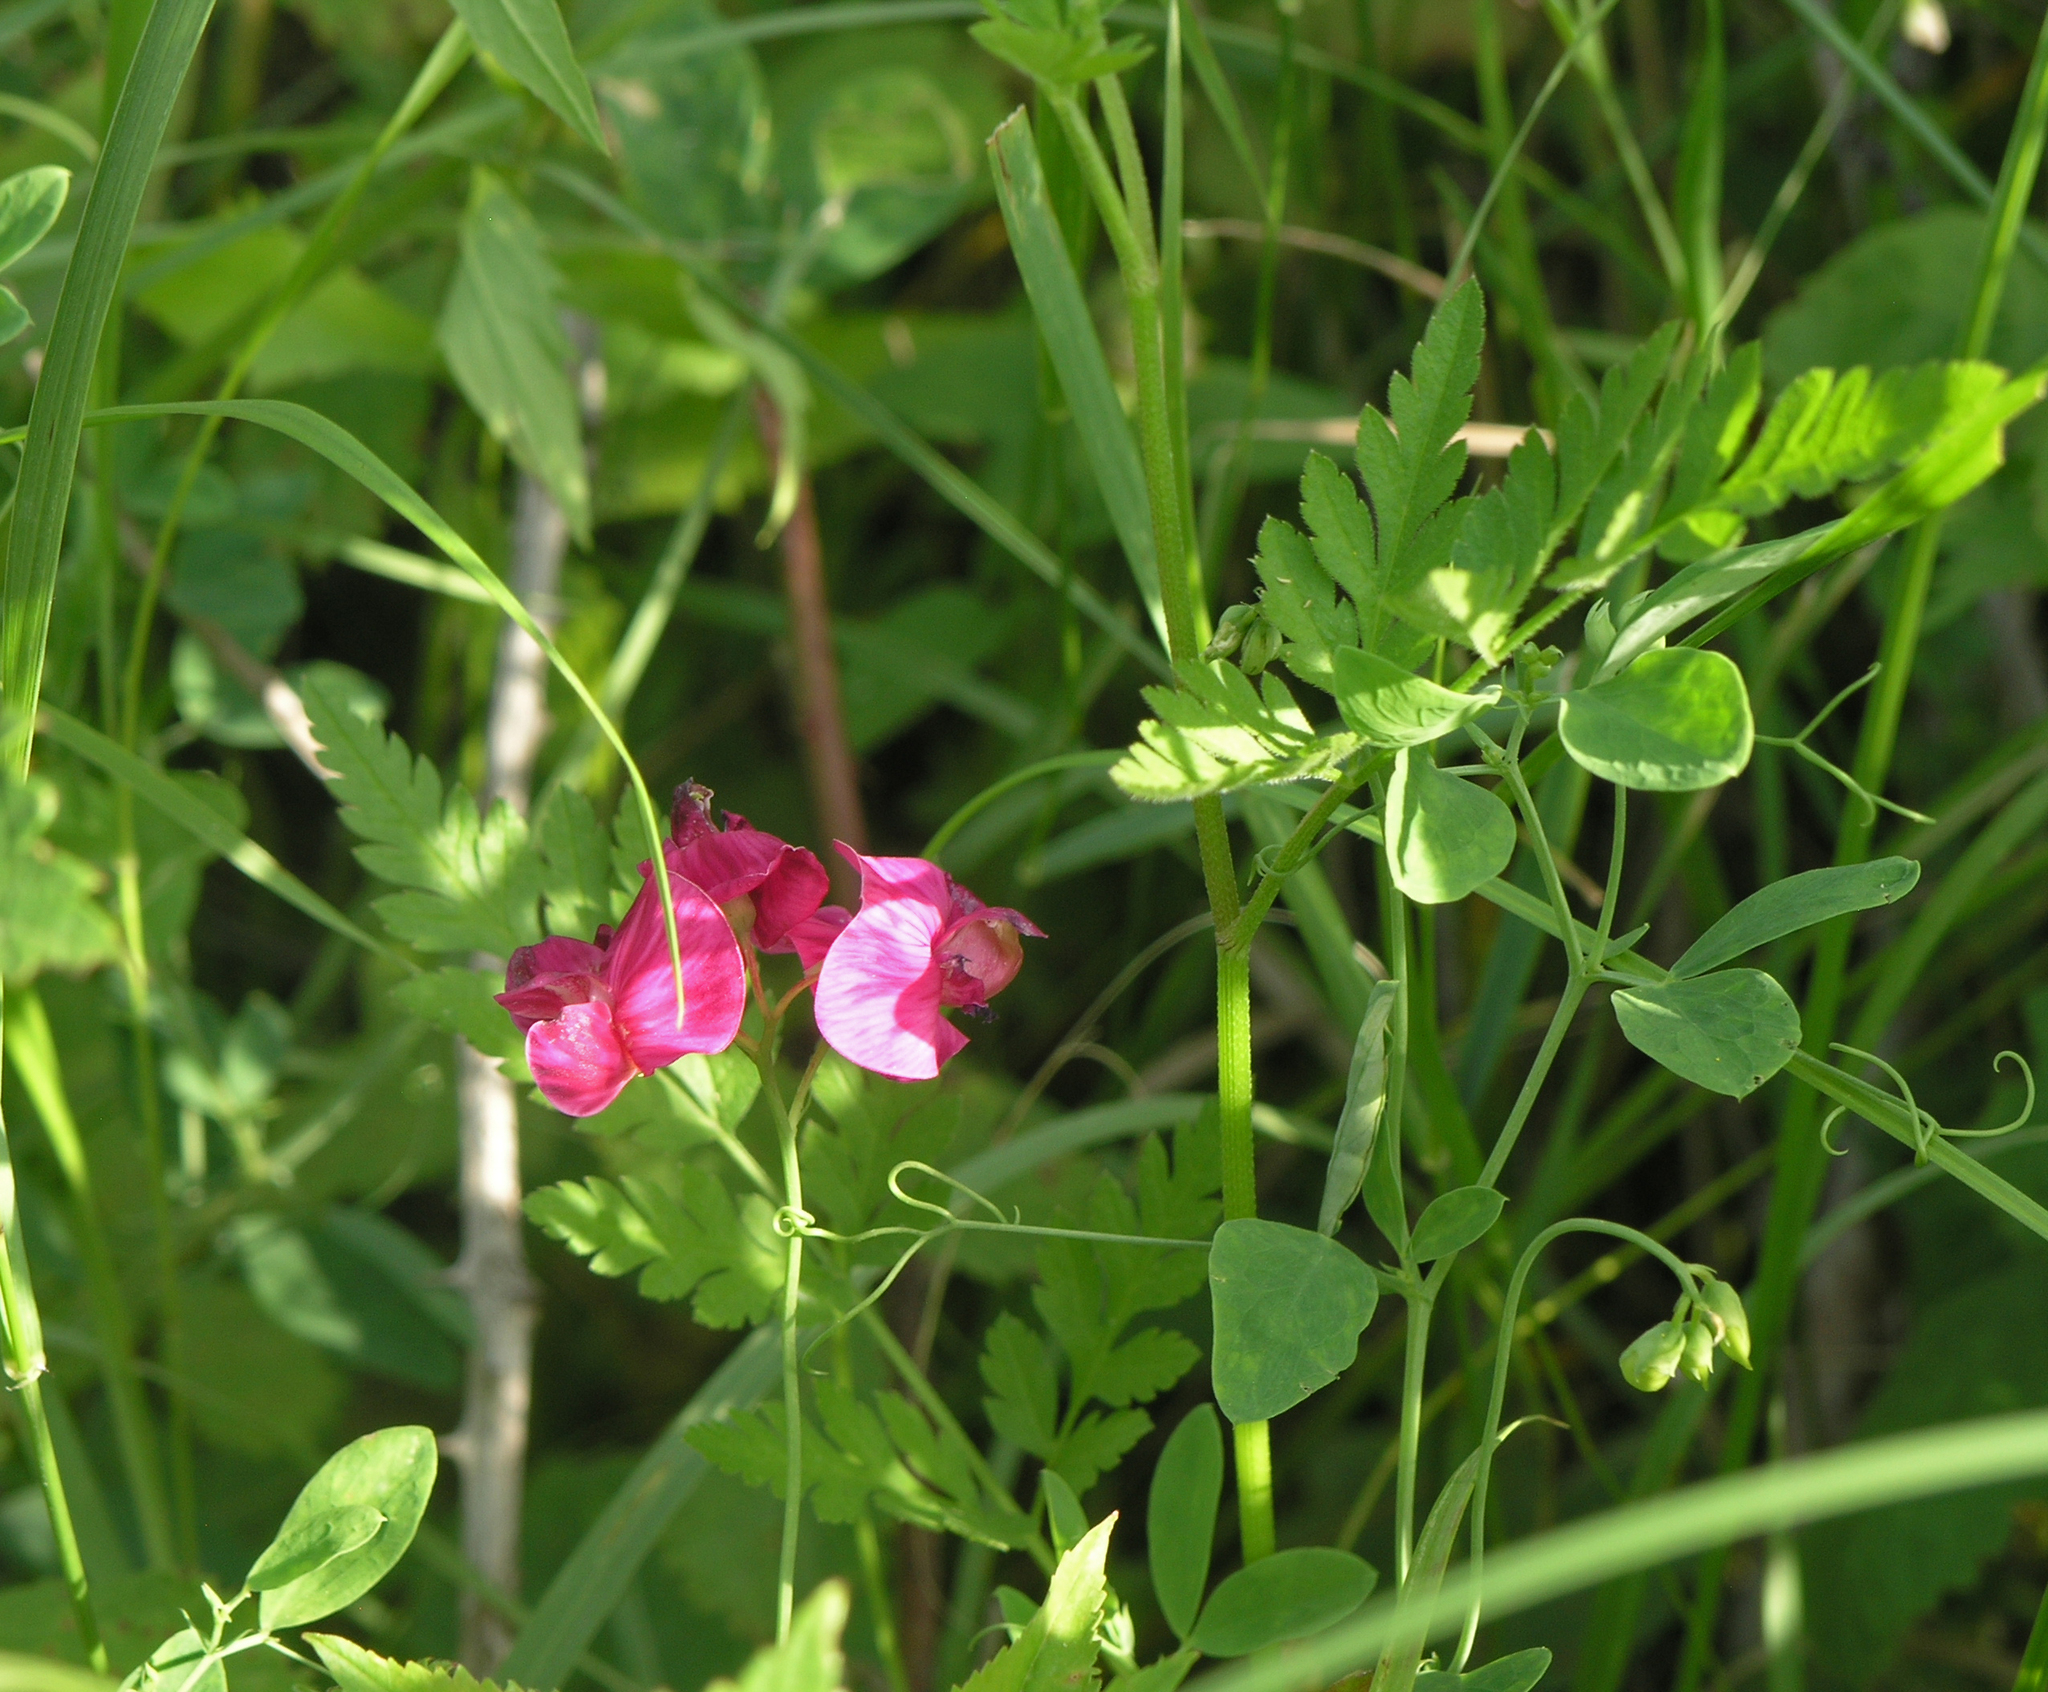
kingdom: Plantae
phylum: Tracheophyta
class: Magnoliopsida
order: Fabales
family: Fabaceae
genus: Lathyrus
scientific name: Lathyrus tuberosus
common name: Tuberous pea
